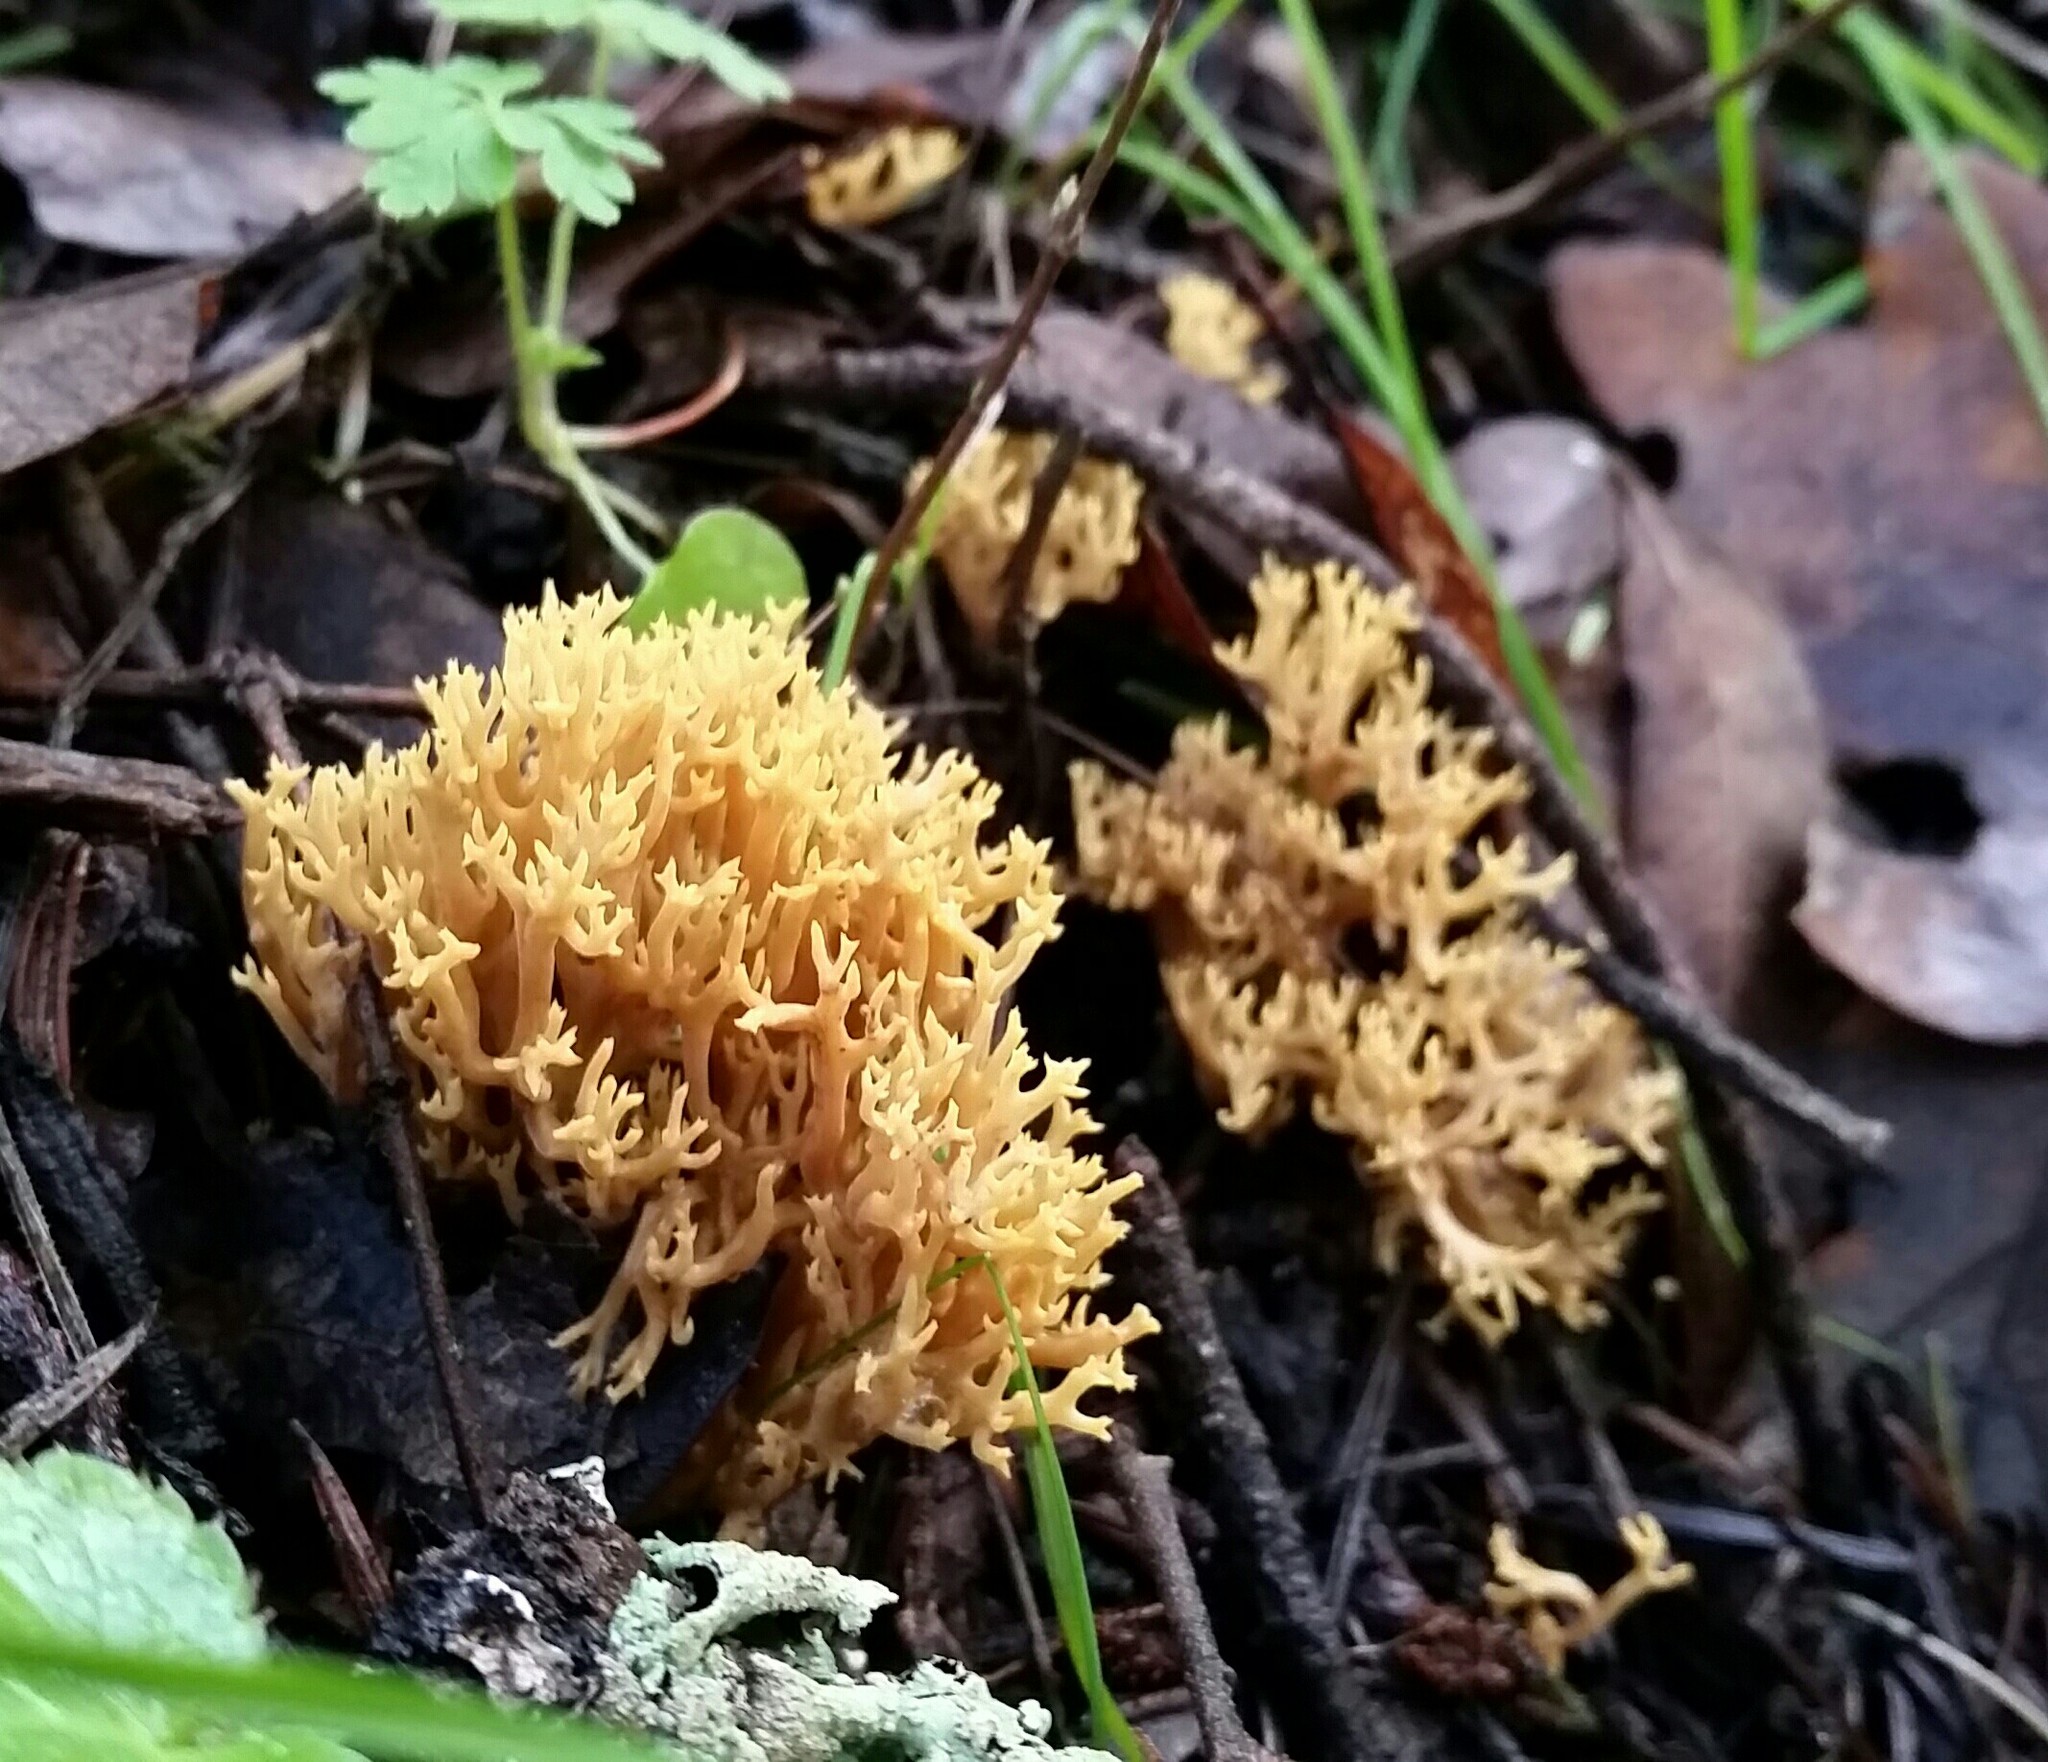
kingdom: Fungi
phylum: Basidiomycota
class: Agaricomycetes
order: Gomphales
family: Gomphaceae
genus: Phaeoclavulina
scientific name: Phaeoclavulina myceliosa
